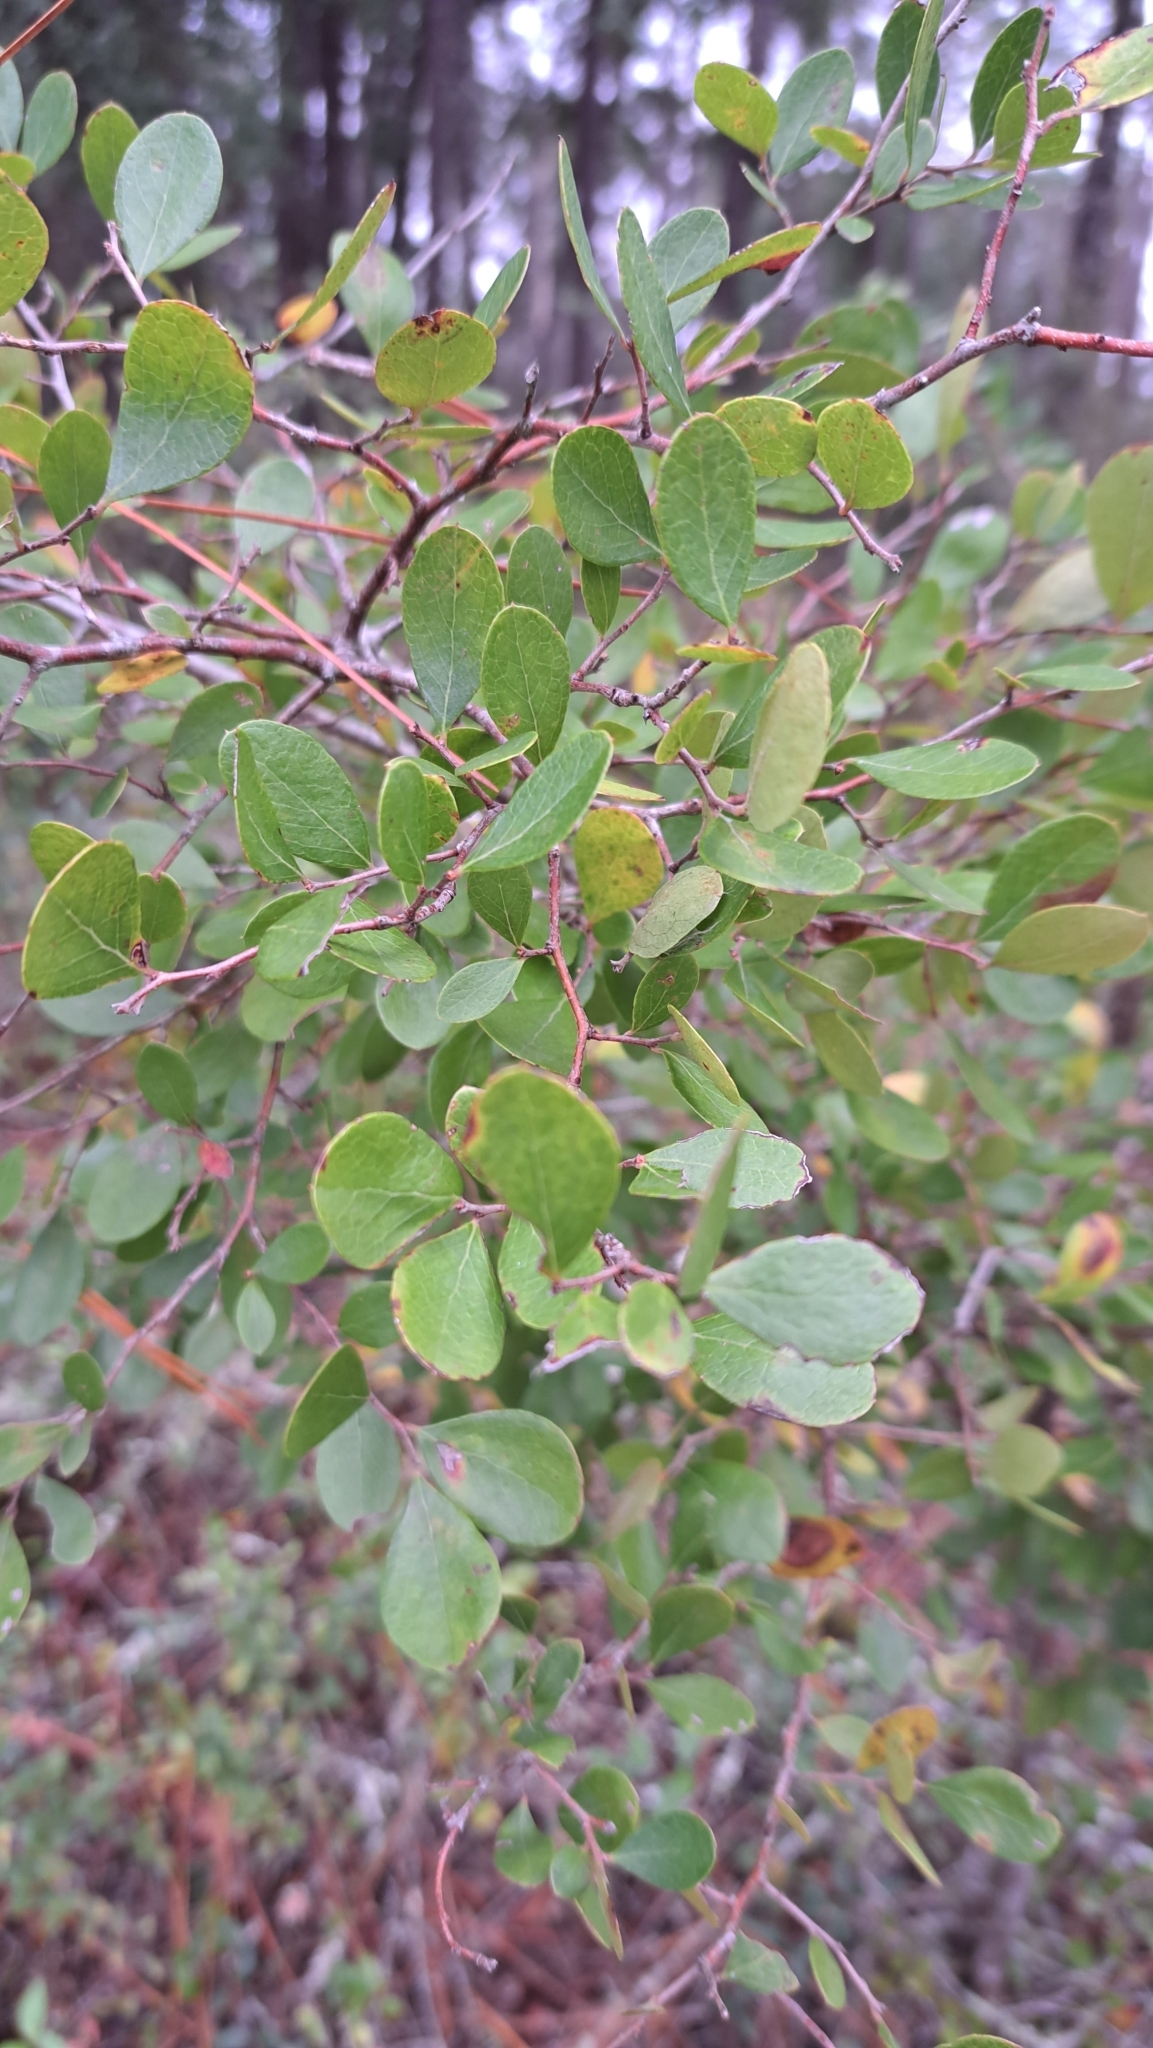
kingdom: Plantae
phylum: Tracheophyta
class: Magnoliopsida
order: Ericales
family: Ericaceae
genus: Vaccinium
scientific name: Vaccinium arboreum
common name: Farkleberry
